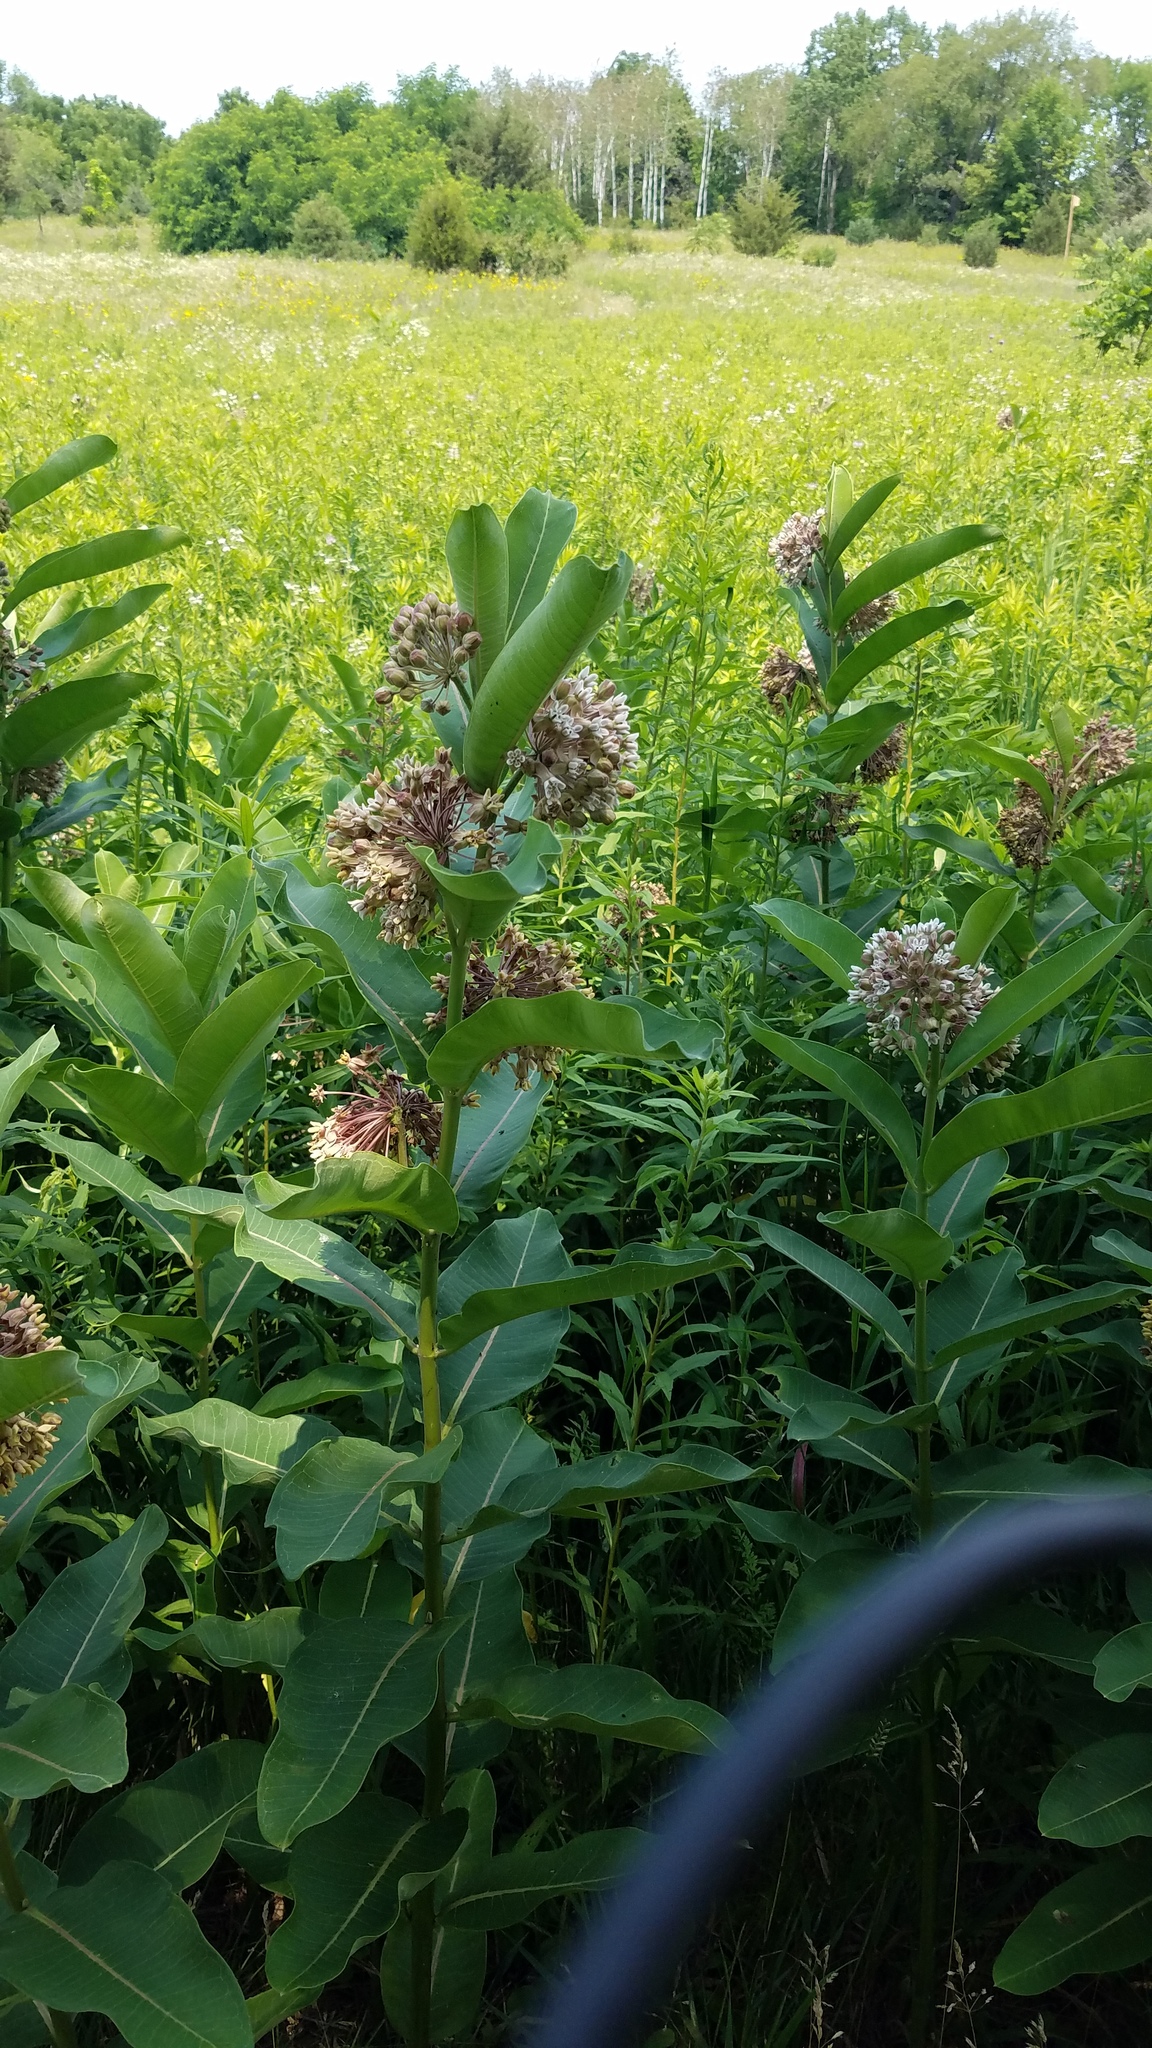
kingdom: Plantae
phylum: Tracheophyta
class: Magnoliopsida
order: Gentianales
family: Apocynaceae
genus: Asclepias
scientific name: Asclepias syriaca
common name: Common milkweed
